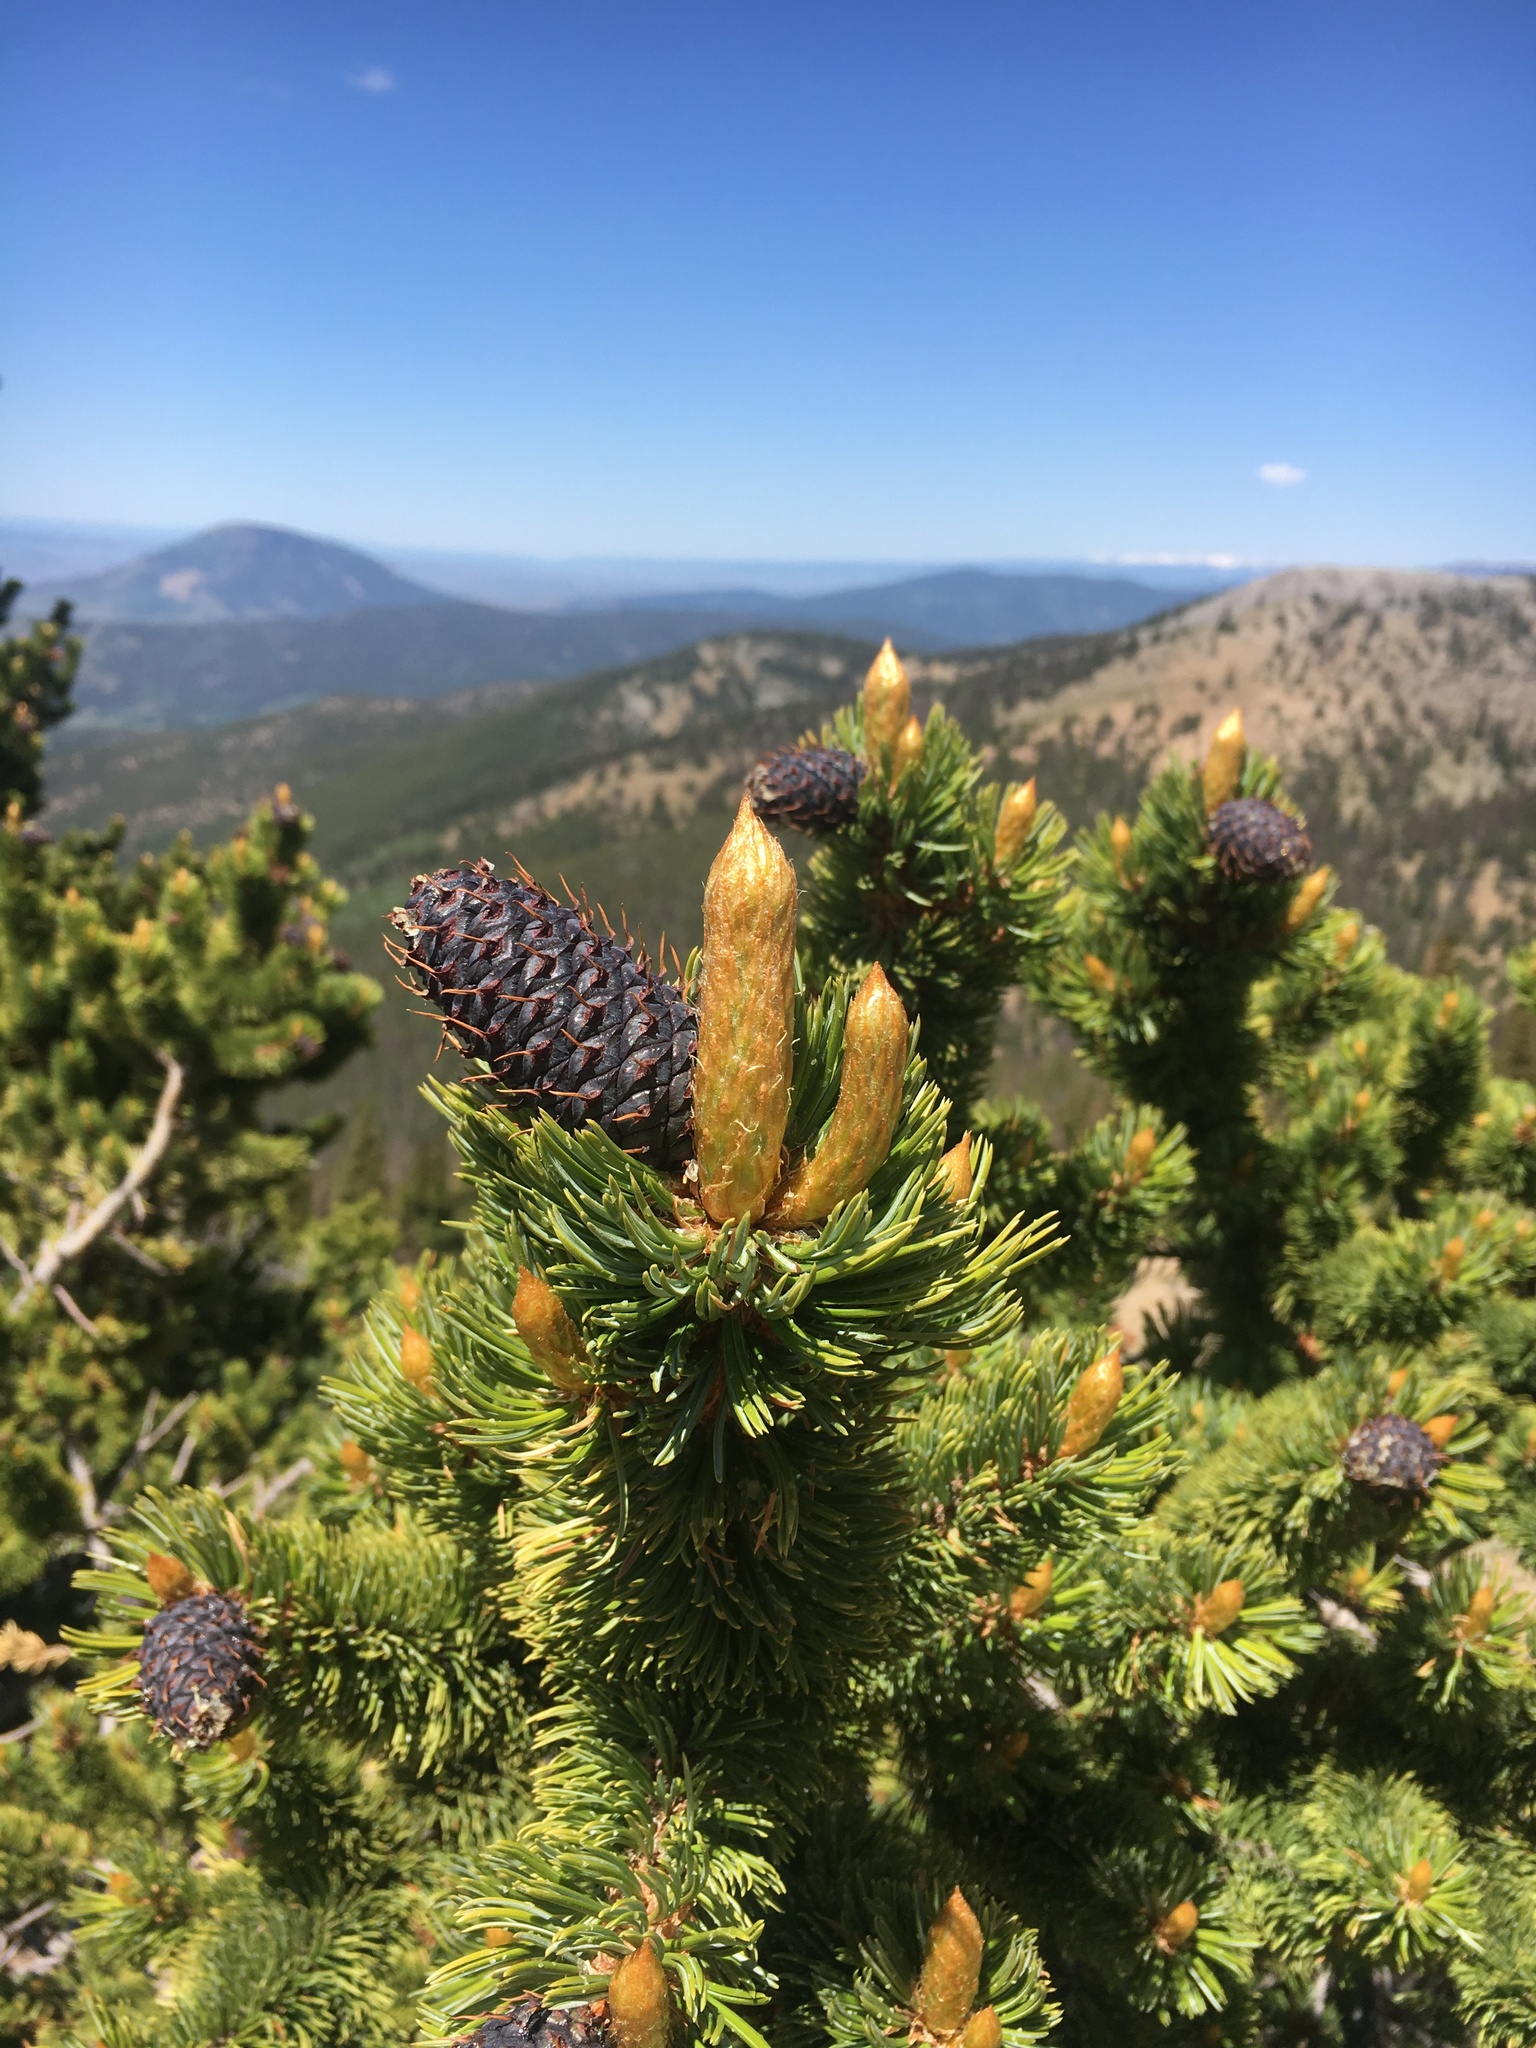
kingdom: Plantae
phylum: Tracheophyta
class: Pinopsida
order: Pinales
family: Pinaceae
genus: Pinus
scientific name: Pinus aristata
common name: Colorado bristlecone pine
